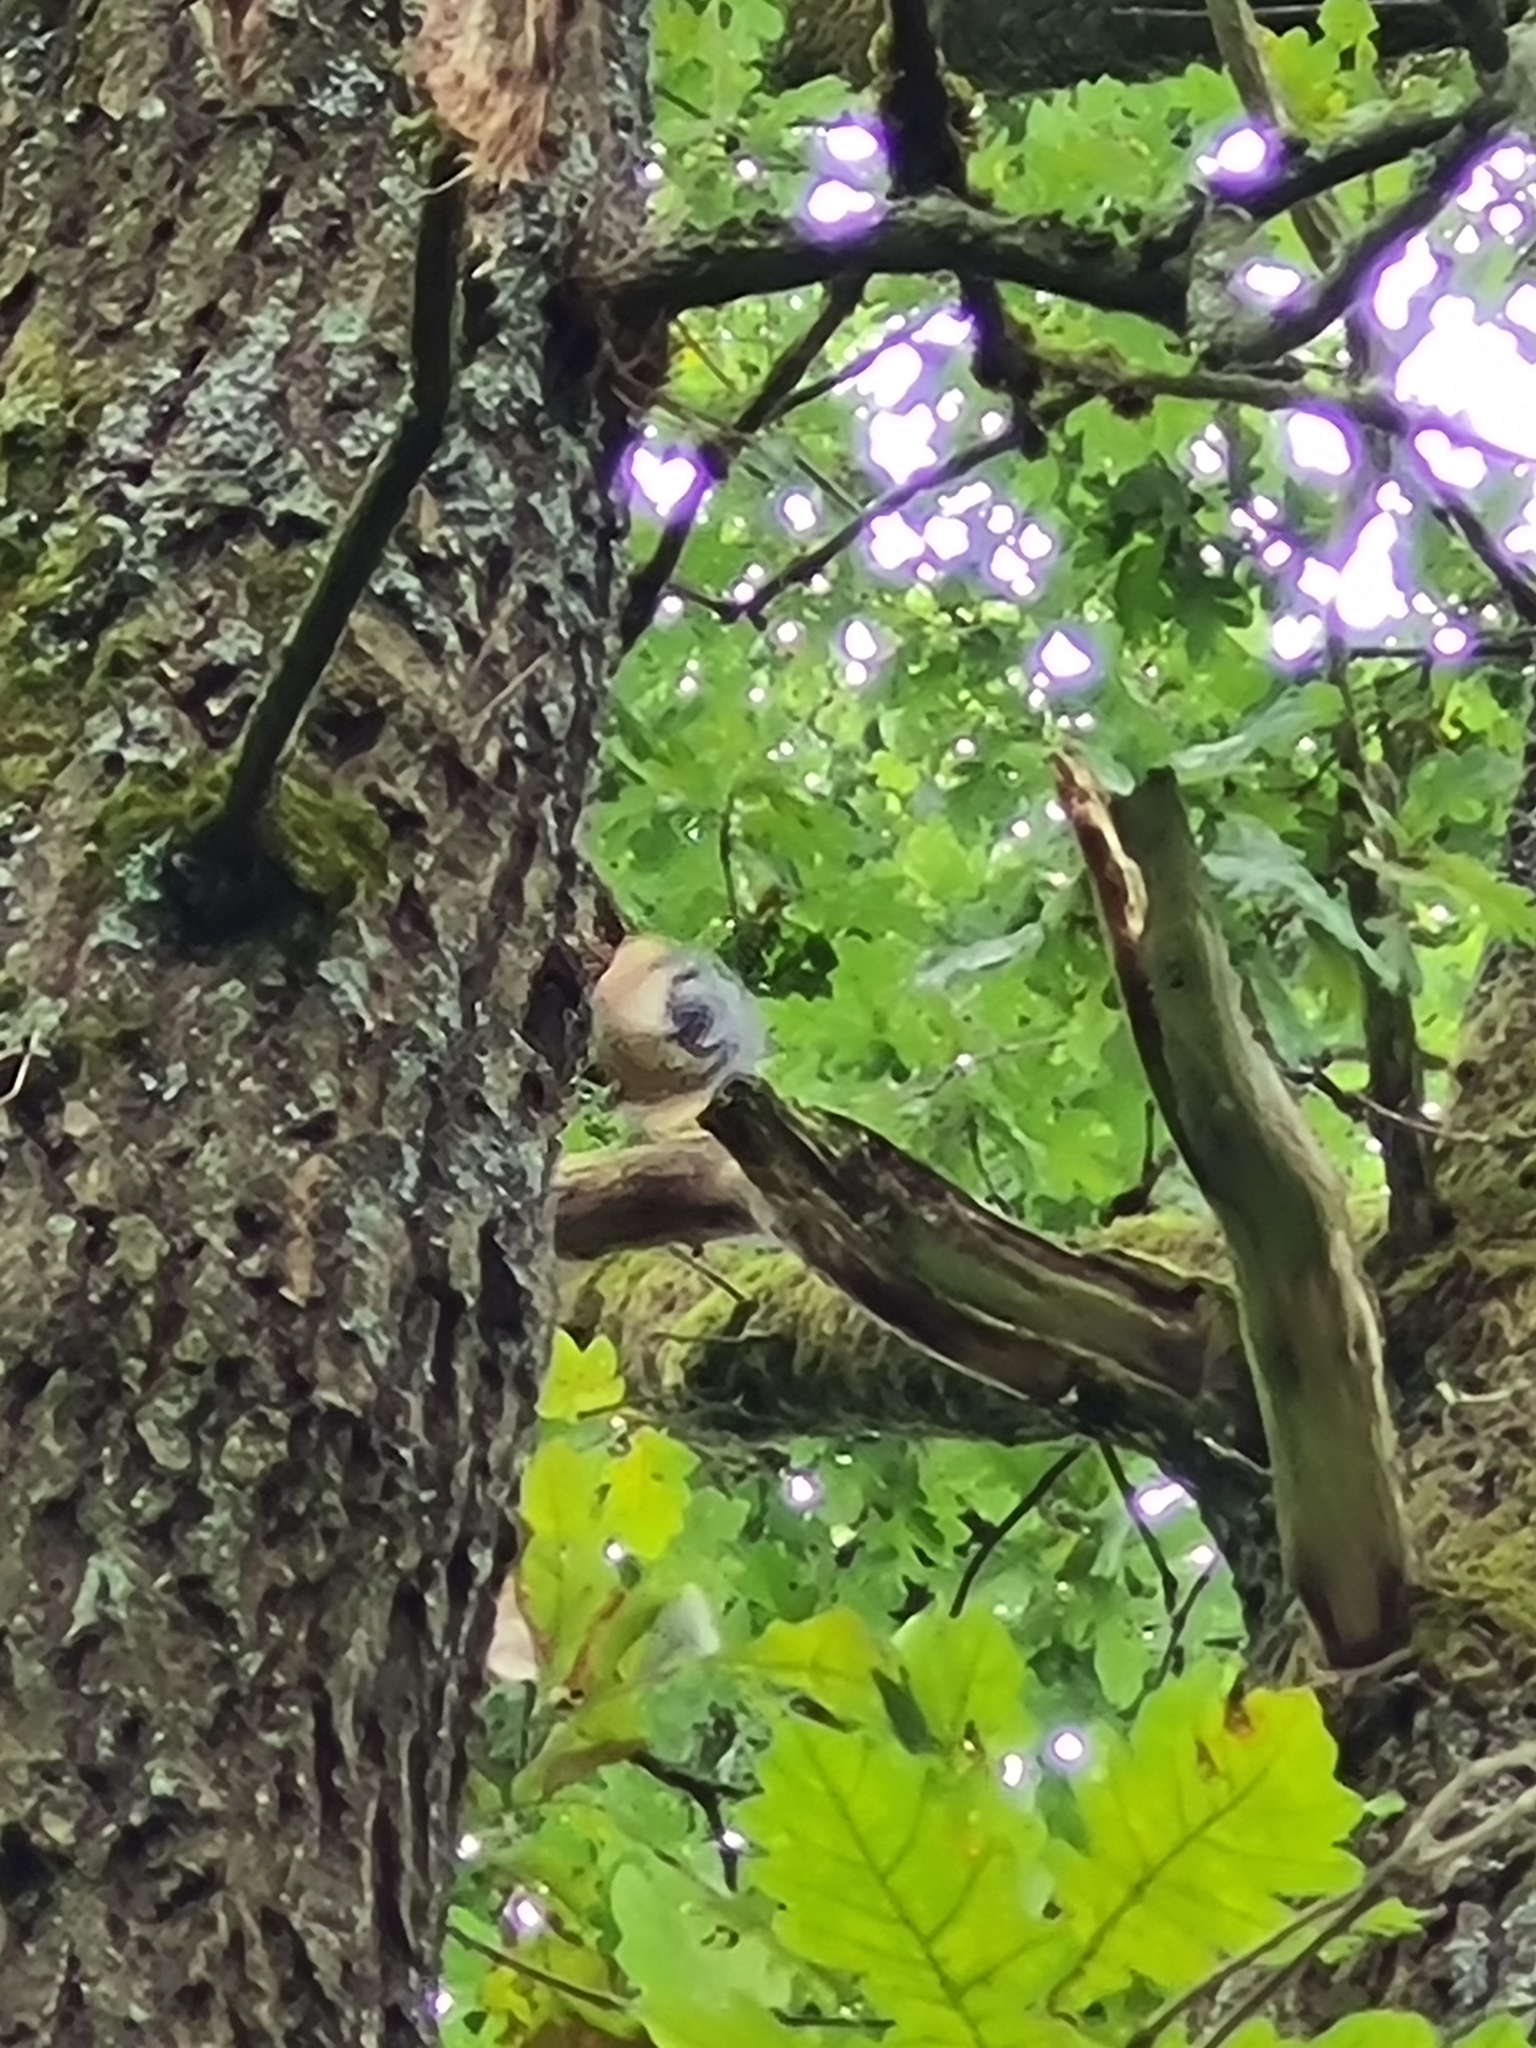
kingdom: Animalia
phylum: Chordata
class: Aves
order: Passeriformes
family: Sittidae
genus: Sitta
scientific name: Sitta europaea
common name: Eurasian nuthatch
